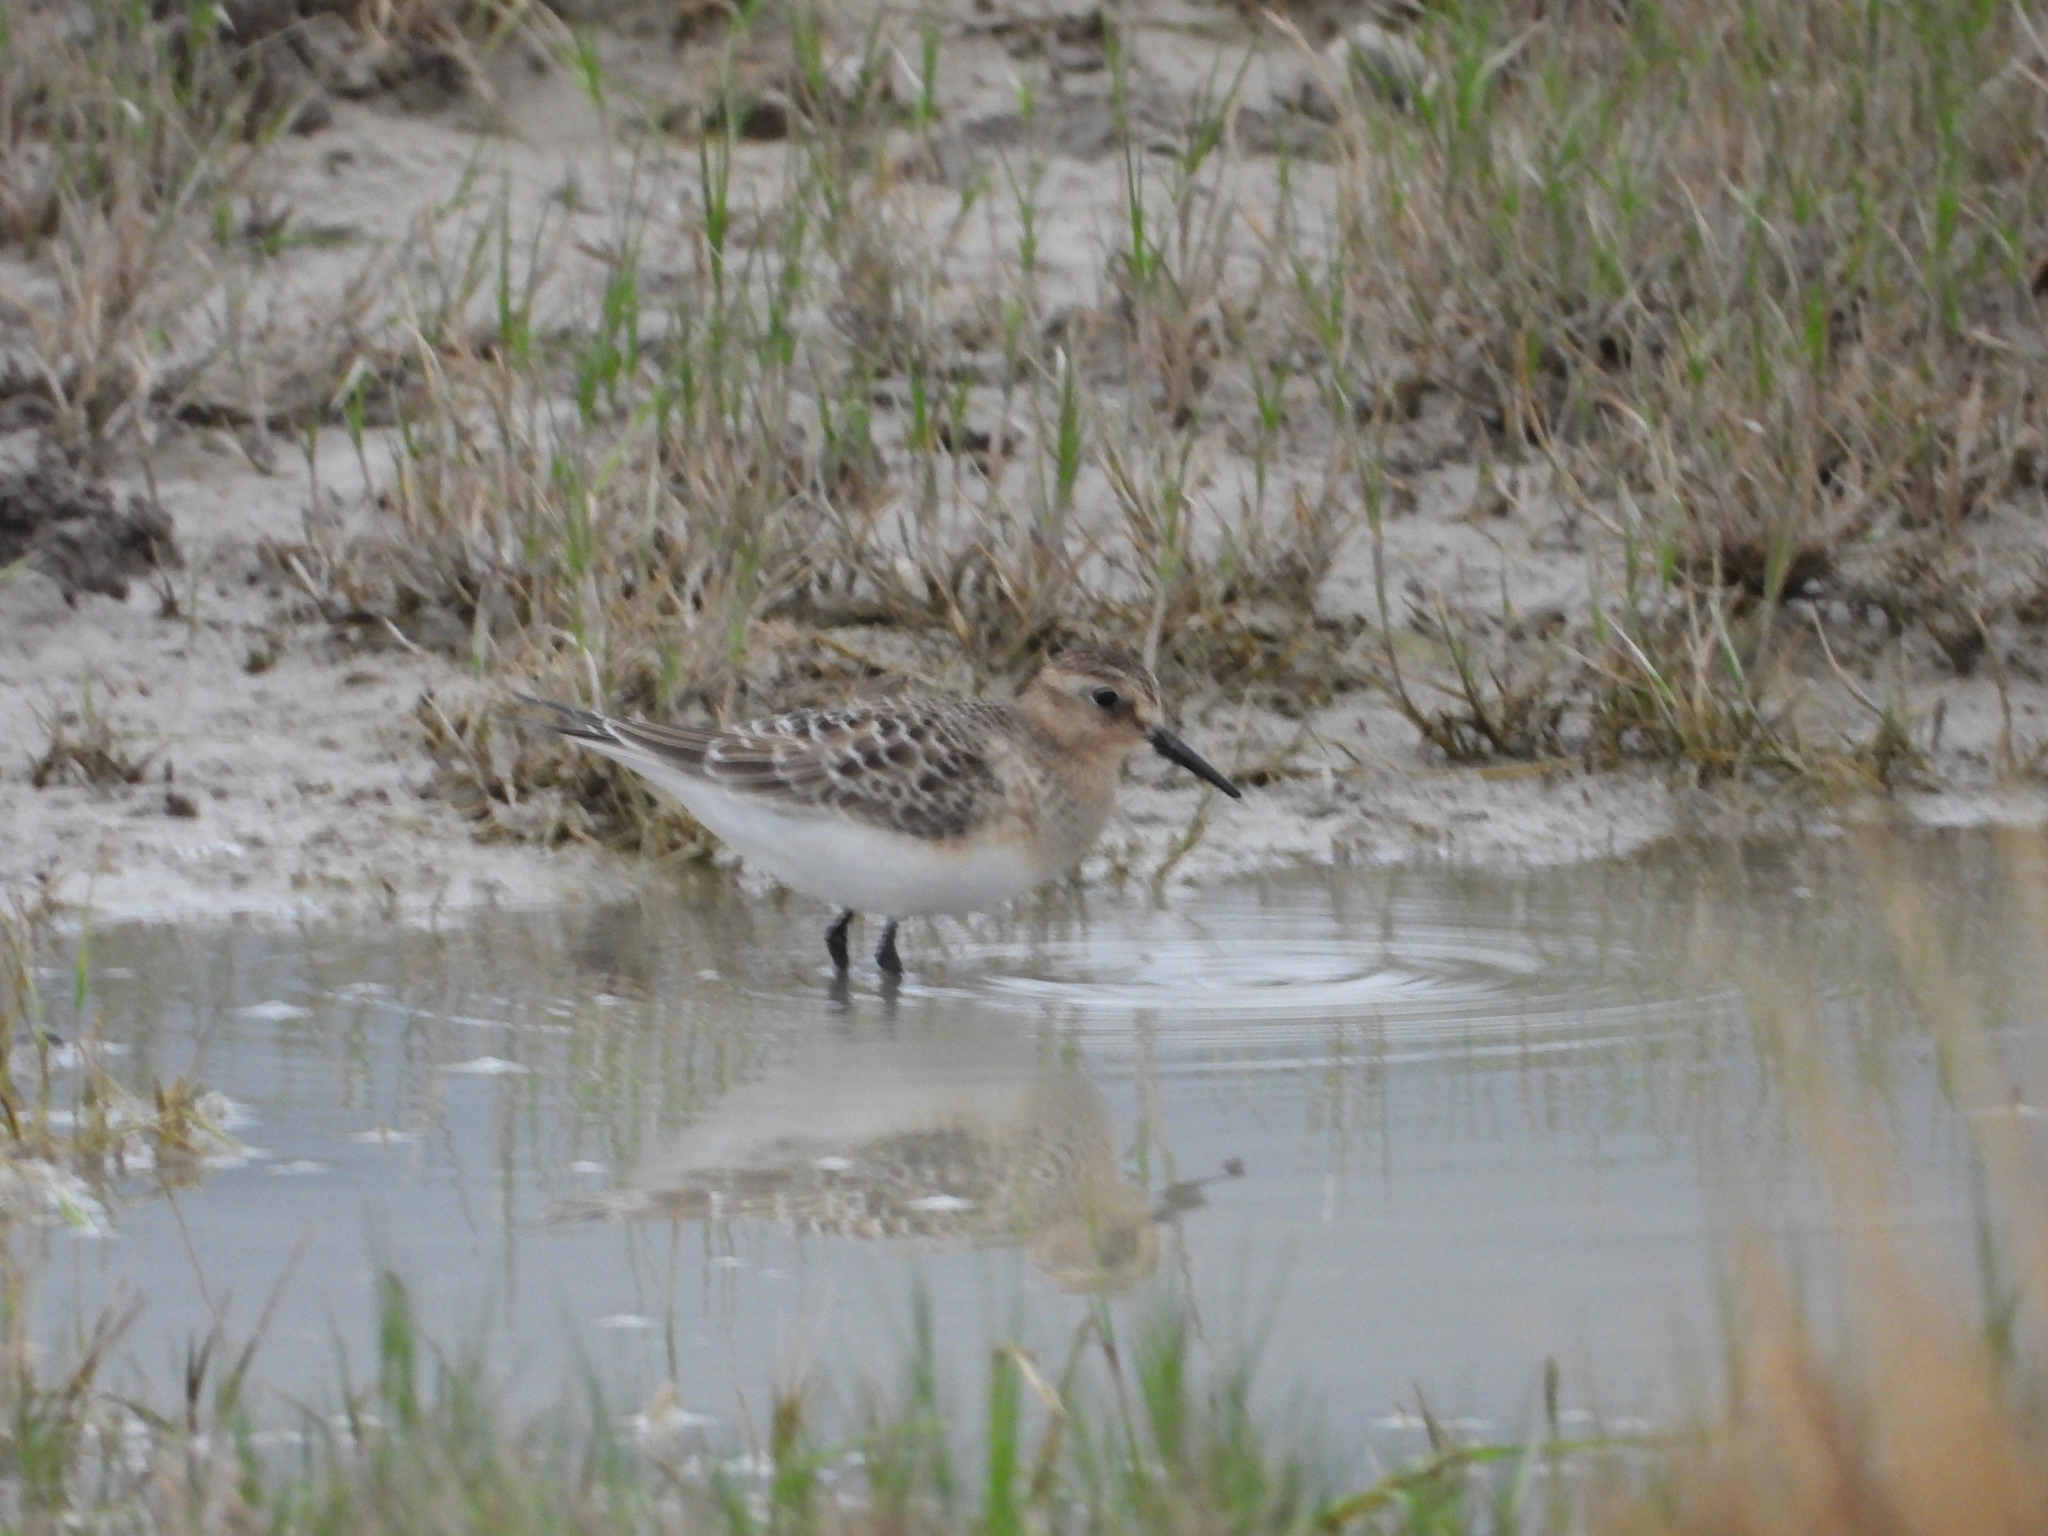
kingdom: Animalia
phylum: Chordata
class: Aves
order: Charadriiformes
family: Scolopacidae
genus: Calidris
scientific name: Calidris bairdii
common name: Baird's sandpiper
